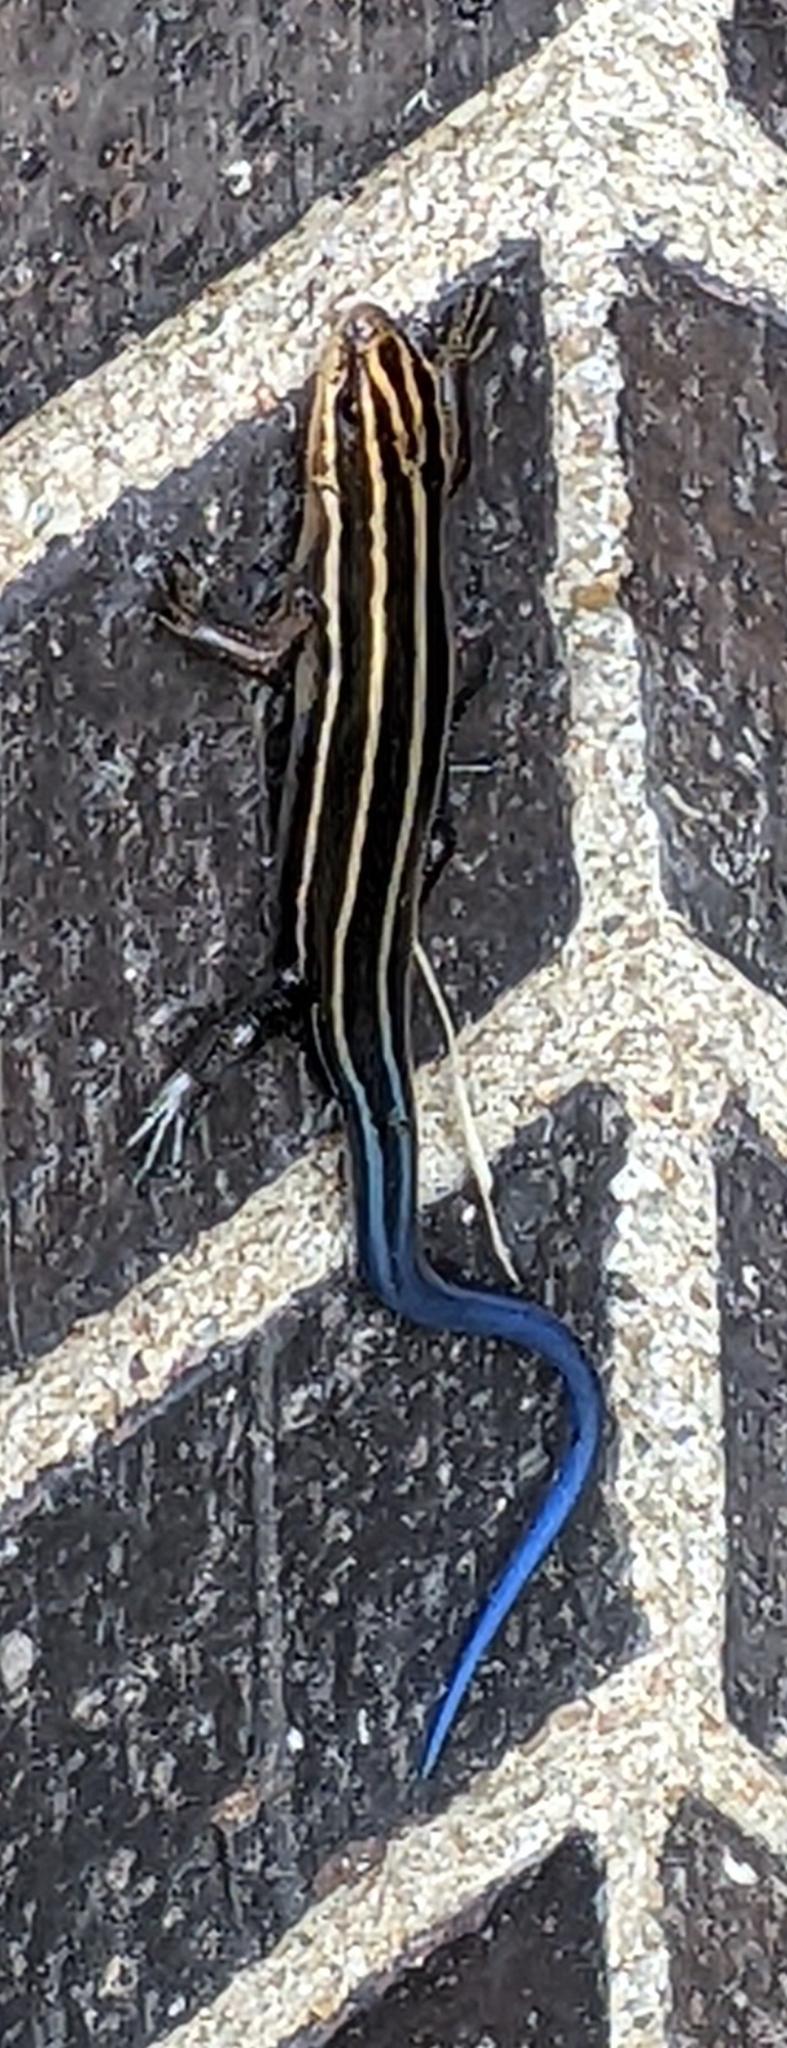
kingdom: Animalia
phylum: Chordata
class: Squamata
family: Scincidae
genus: Plestiodon
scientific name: Plestiodon fasciatus
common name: Five-lined skink
